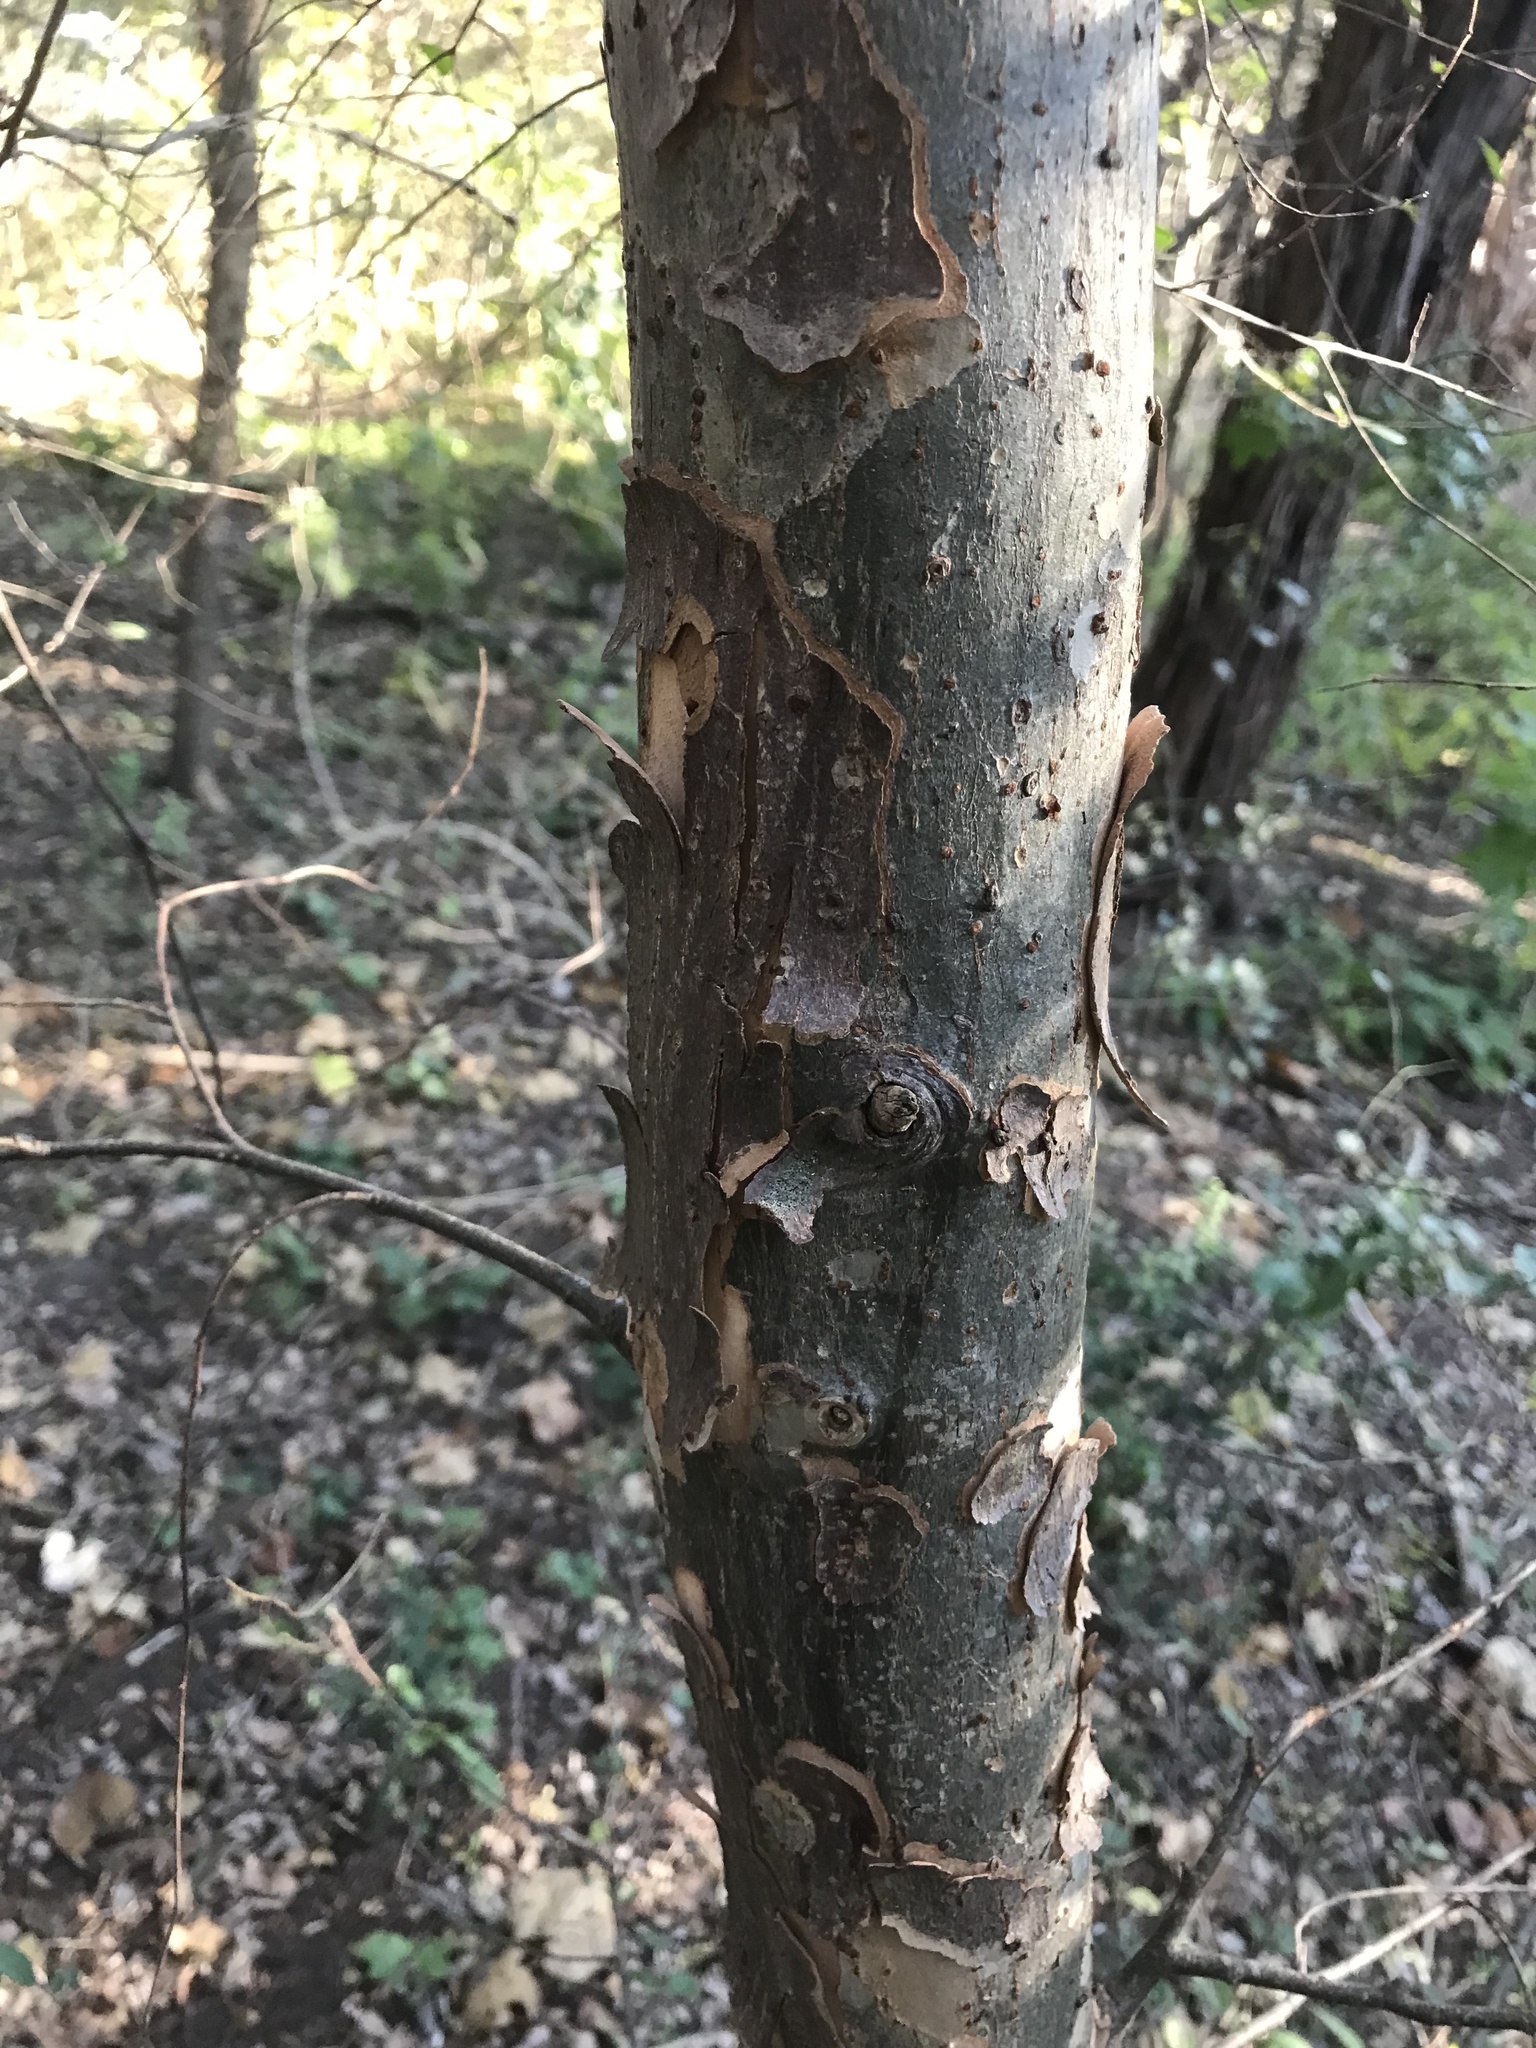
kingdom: Plantae
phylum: Tracheophyta
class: Magnoliopsida
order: Rosales
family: Ulmaceae
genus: Ulmus
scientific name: Ulmus parvifolia
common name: Chinese elm
